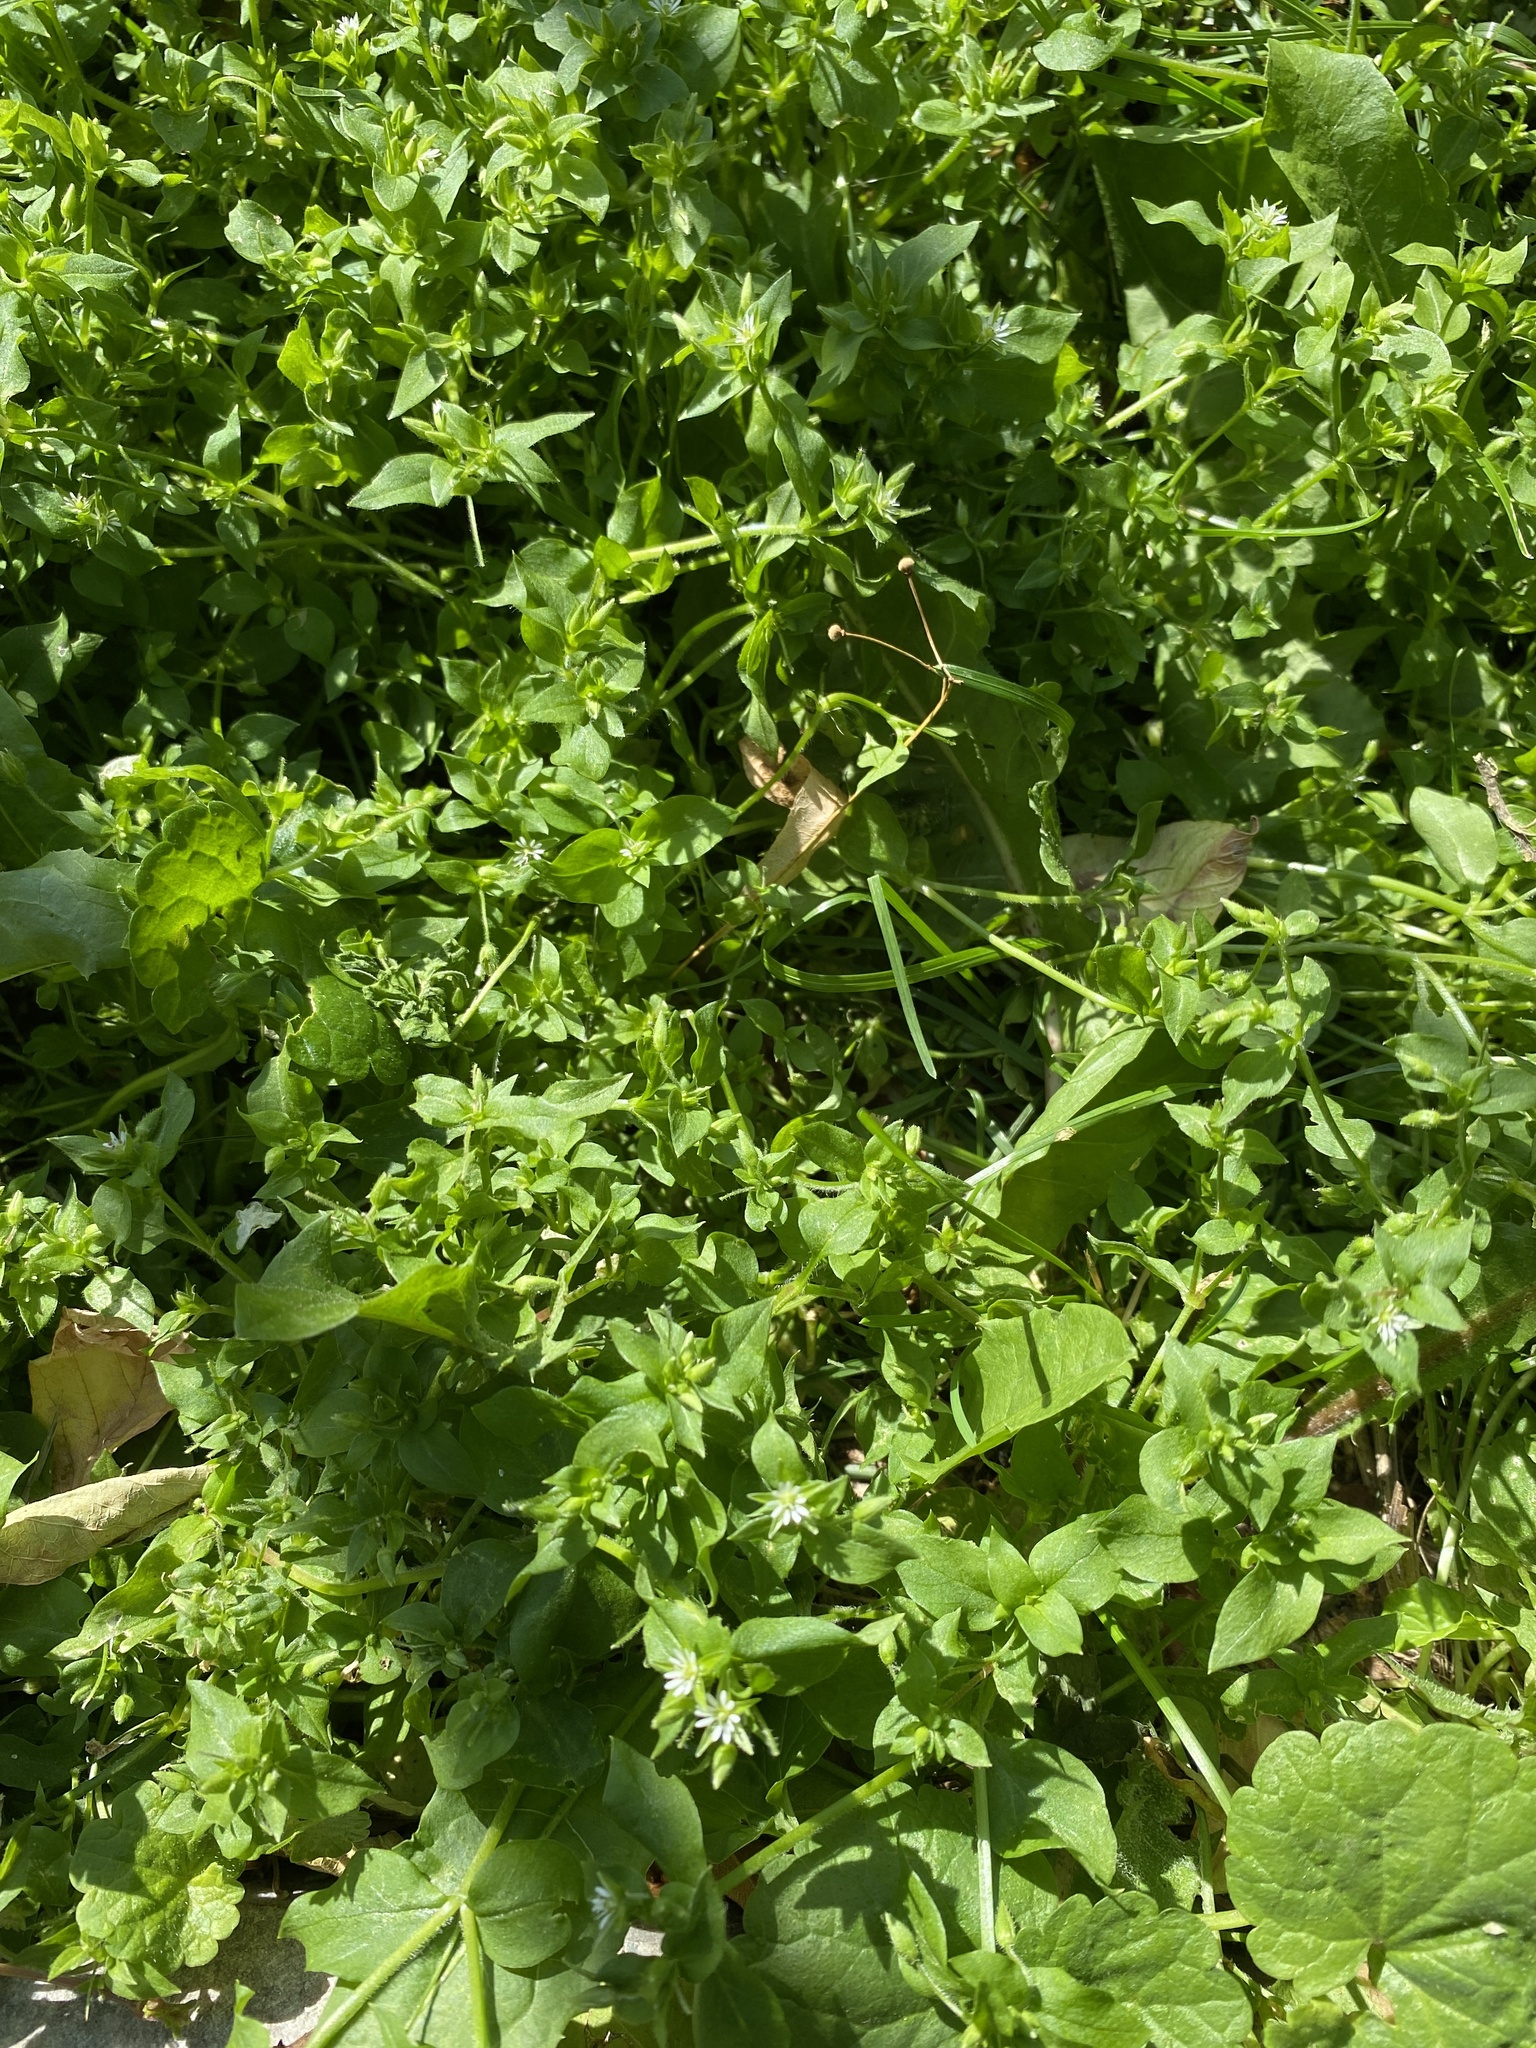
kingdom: Plantae
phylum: Tracheophyta
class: Magnoliopsida
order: Caryophyllales
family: Caryophyllaceae
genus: Stellaria
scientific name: Stellaria media
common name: Common chickweed
